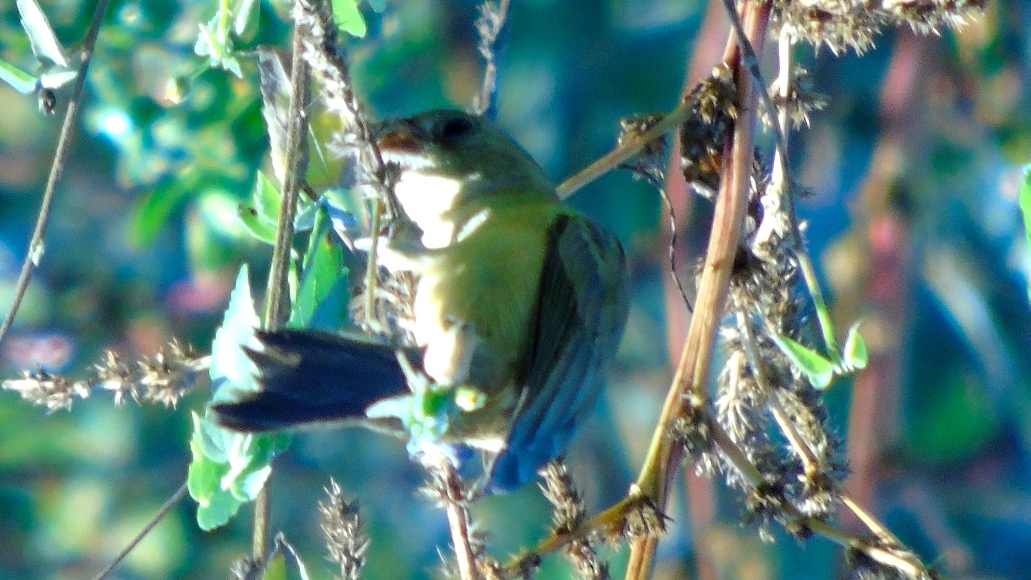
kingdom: Animalia
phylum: Chordata
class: Aves
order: Passeriformes
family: Thraupidae
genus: Sporophila
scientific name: Sporophila torqueola
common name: White-collared seedeater
